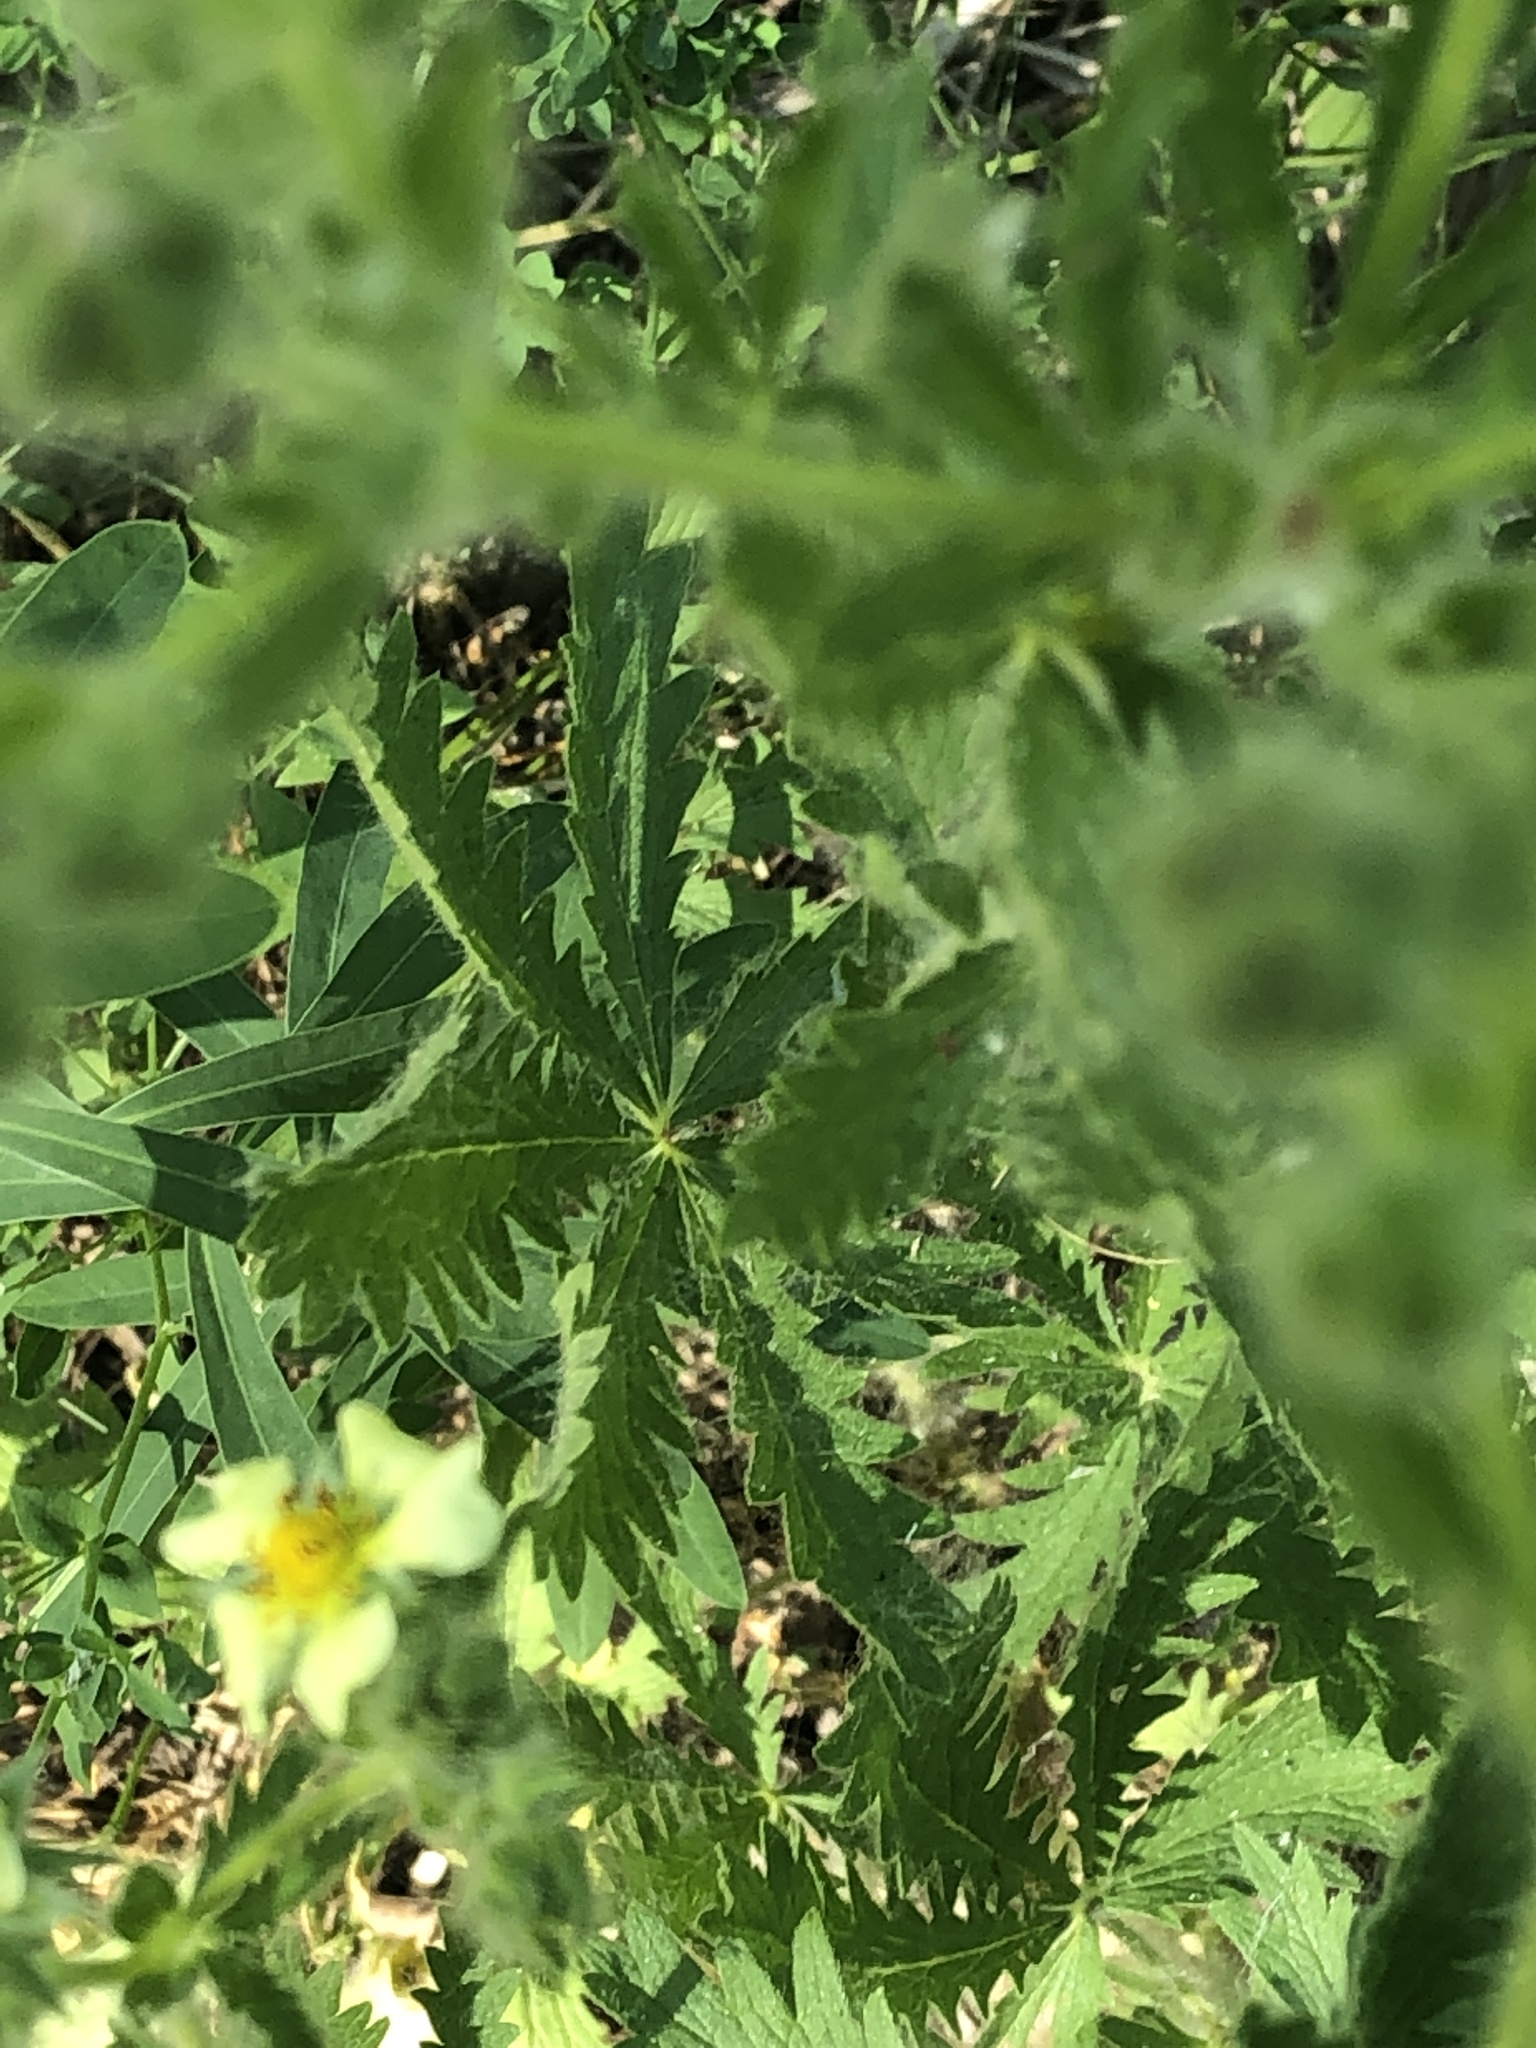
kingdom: Plantae
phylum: Tracheophyta
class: Magnoliopsida
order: Rosales
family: Rosaceae
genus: Potentilla
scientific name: Potentilla recta
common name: Sulphur cinquefoil
